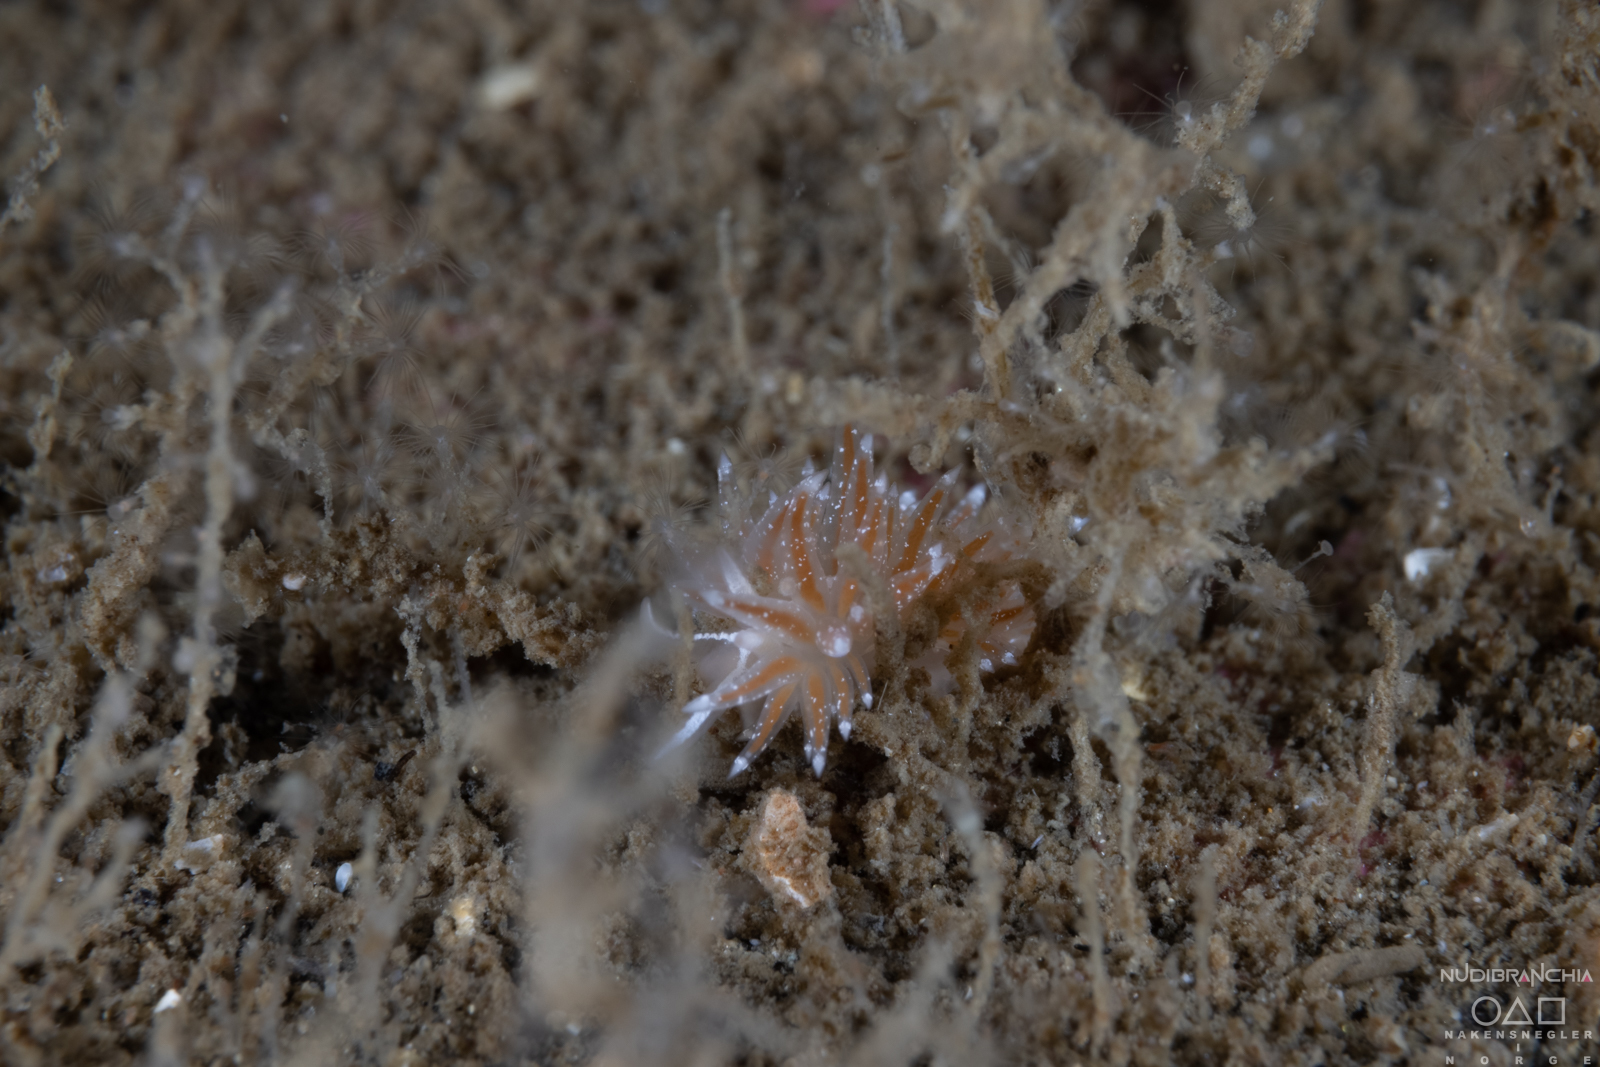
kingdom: Animalia
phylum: Mollusca
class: Gastropoda
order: Nudibranchia
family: Coryphellidae
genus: Coryphella
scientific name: Coryphella monicae
